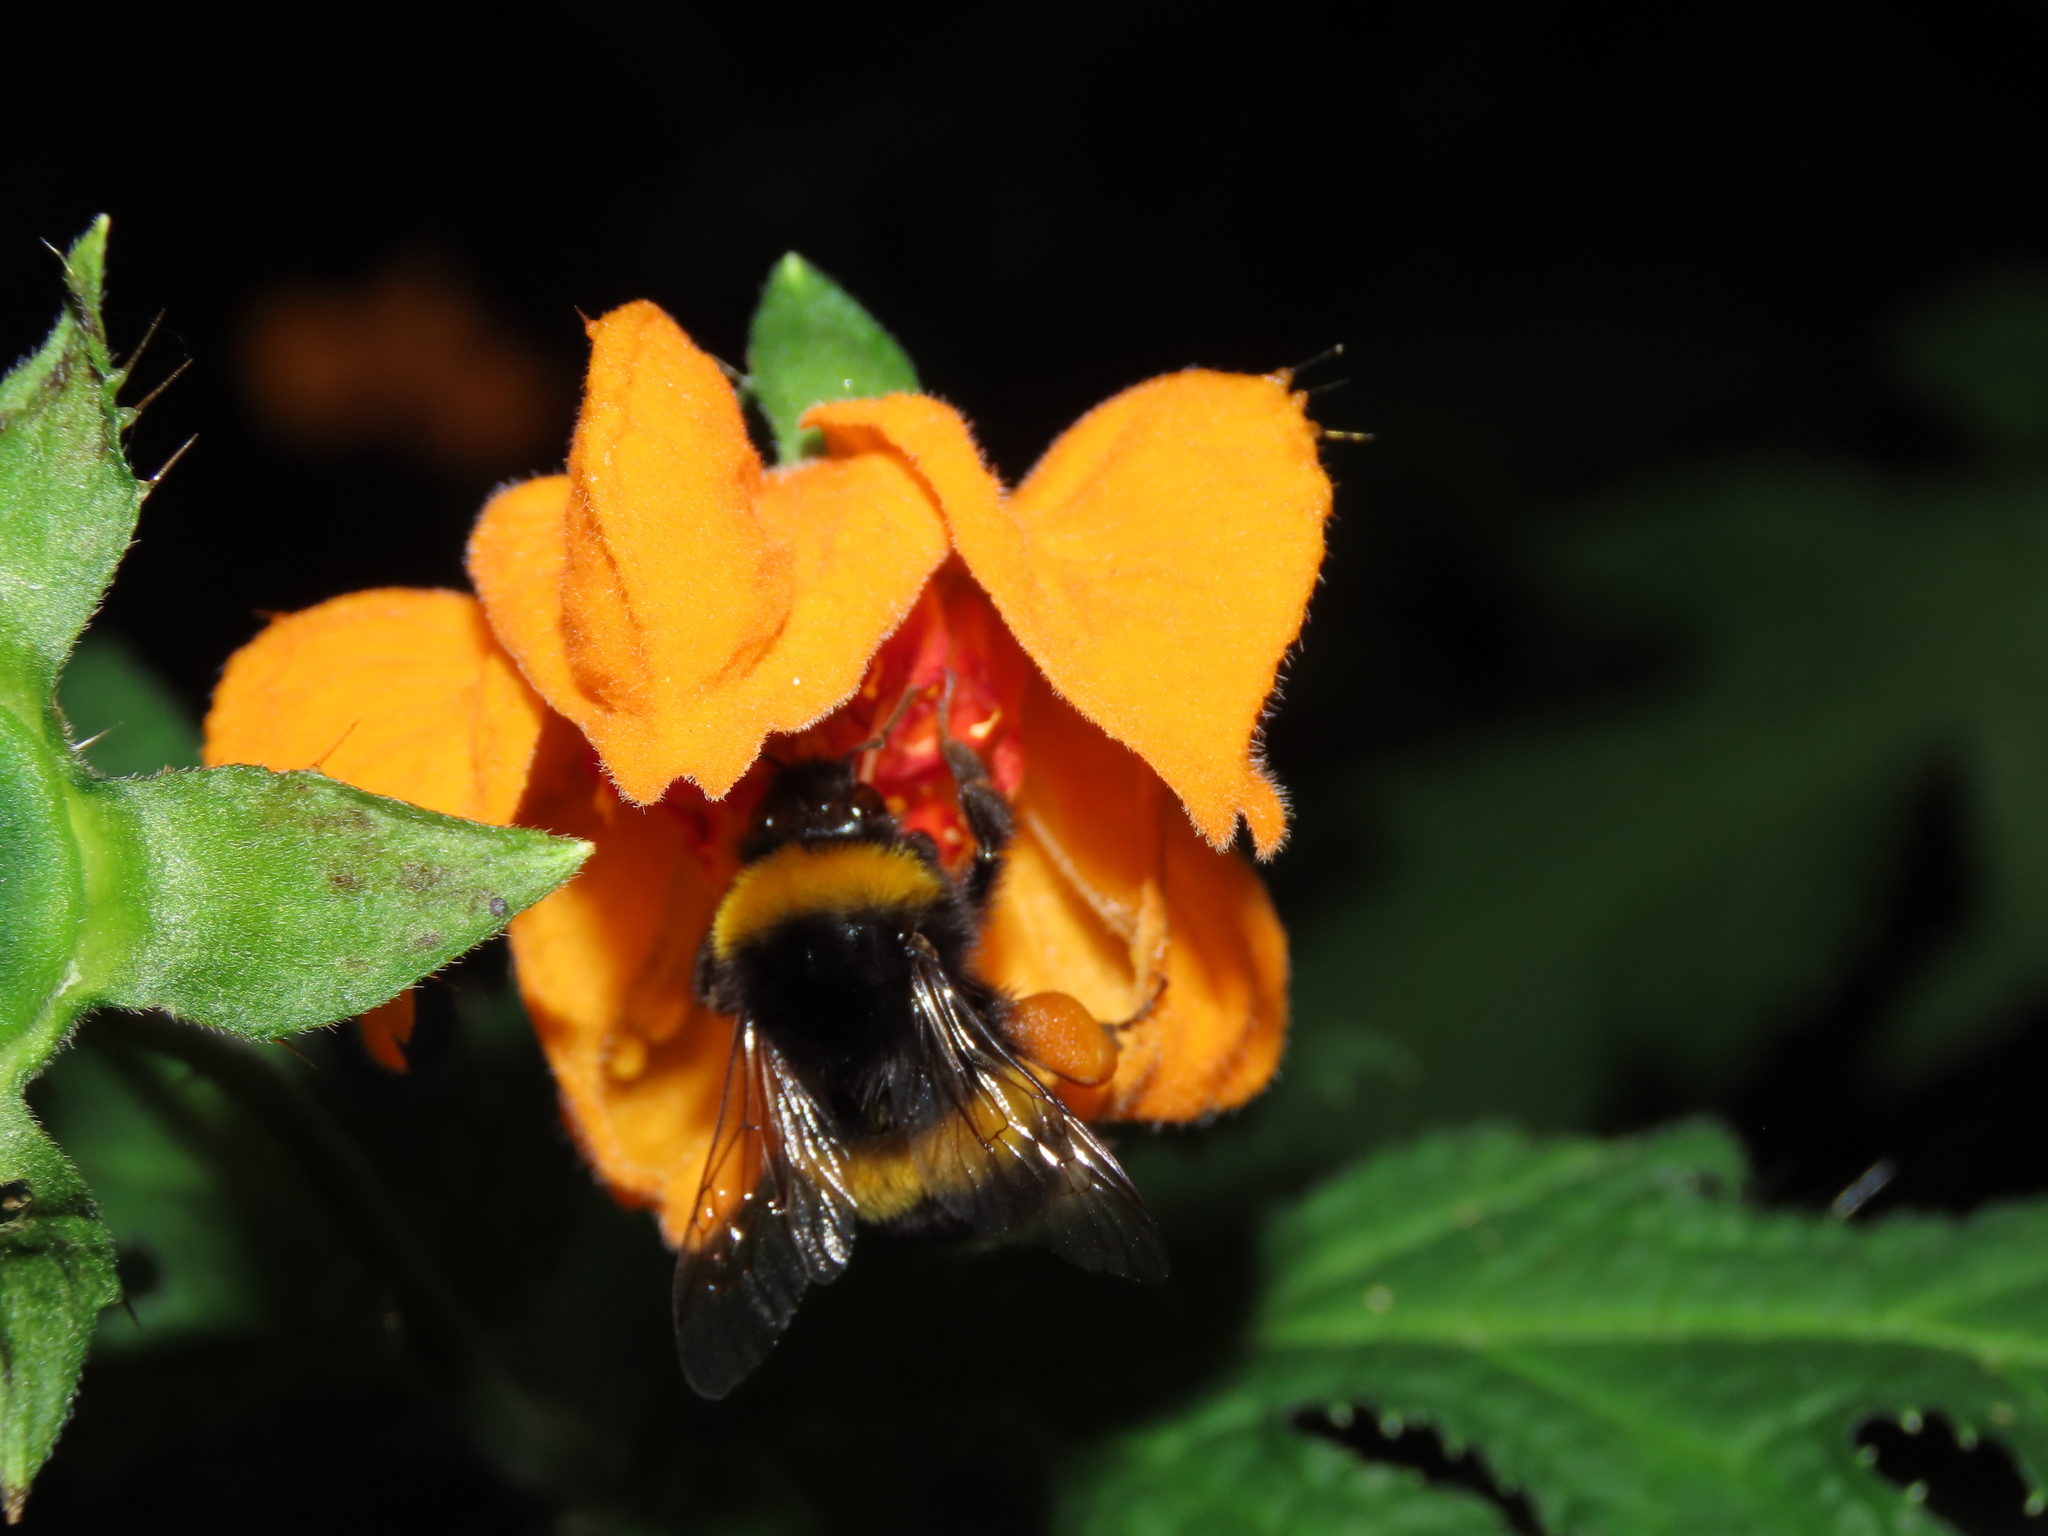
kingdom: Animalia
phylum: Arthropoda
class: Insecta
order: Hymenoptera
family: Apidae
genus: Bombus
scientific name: Bombus terrestris
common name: Buff-tailed bumblebee
